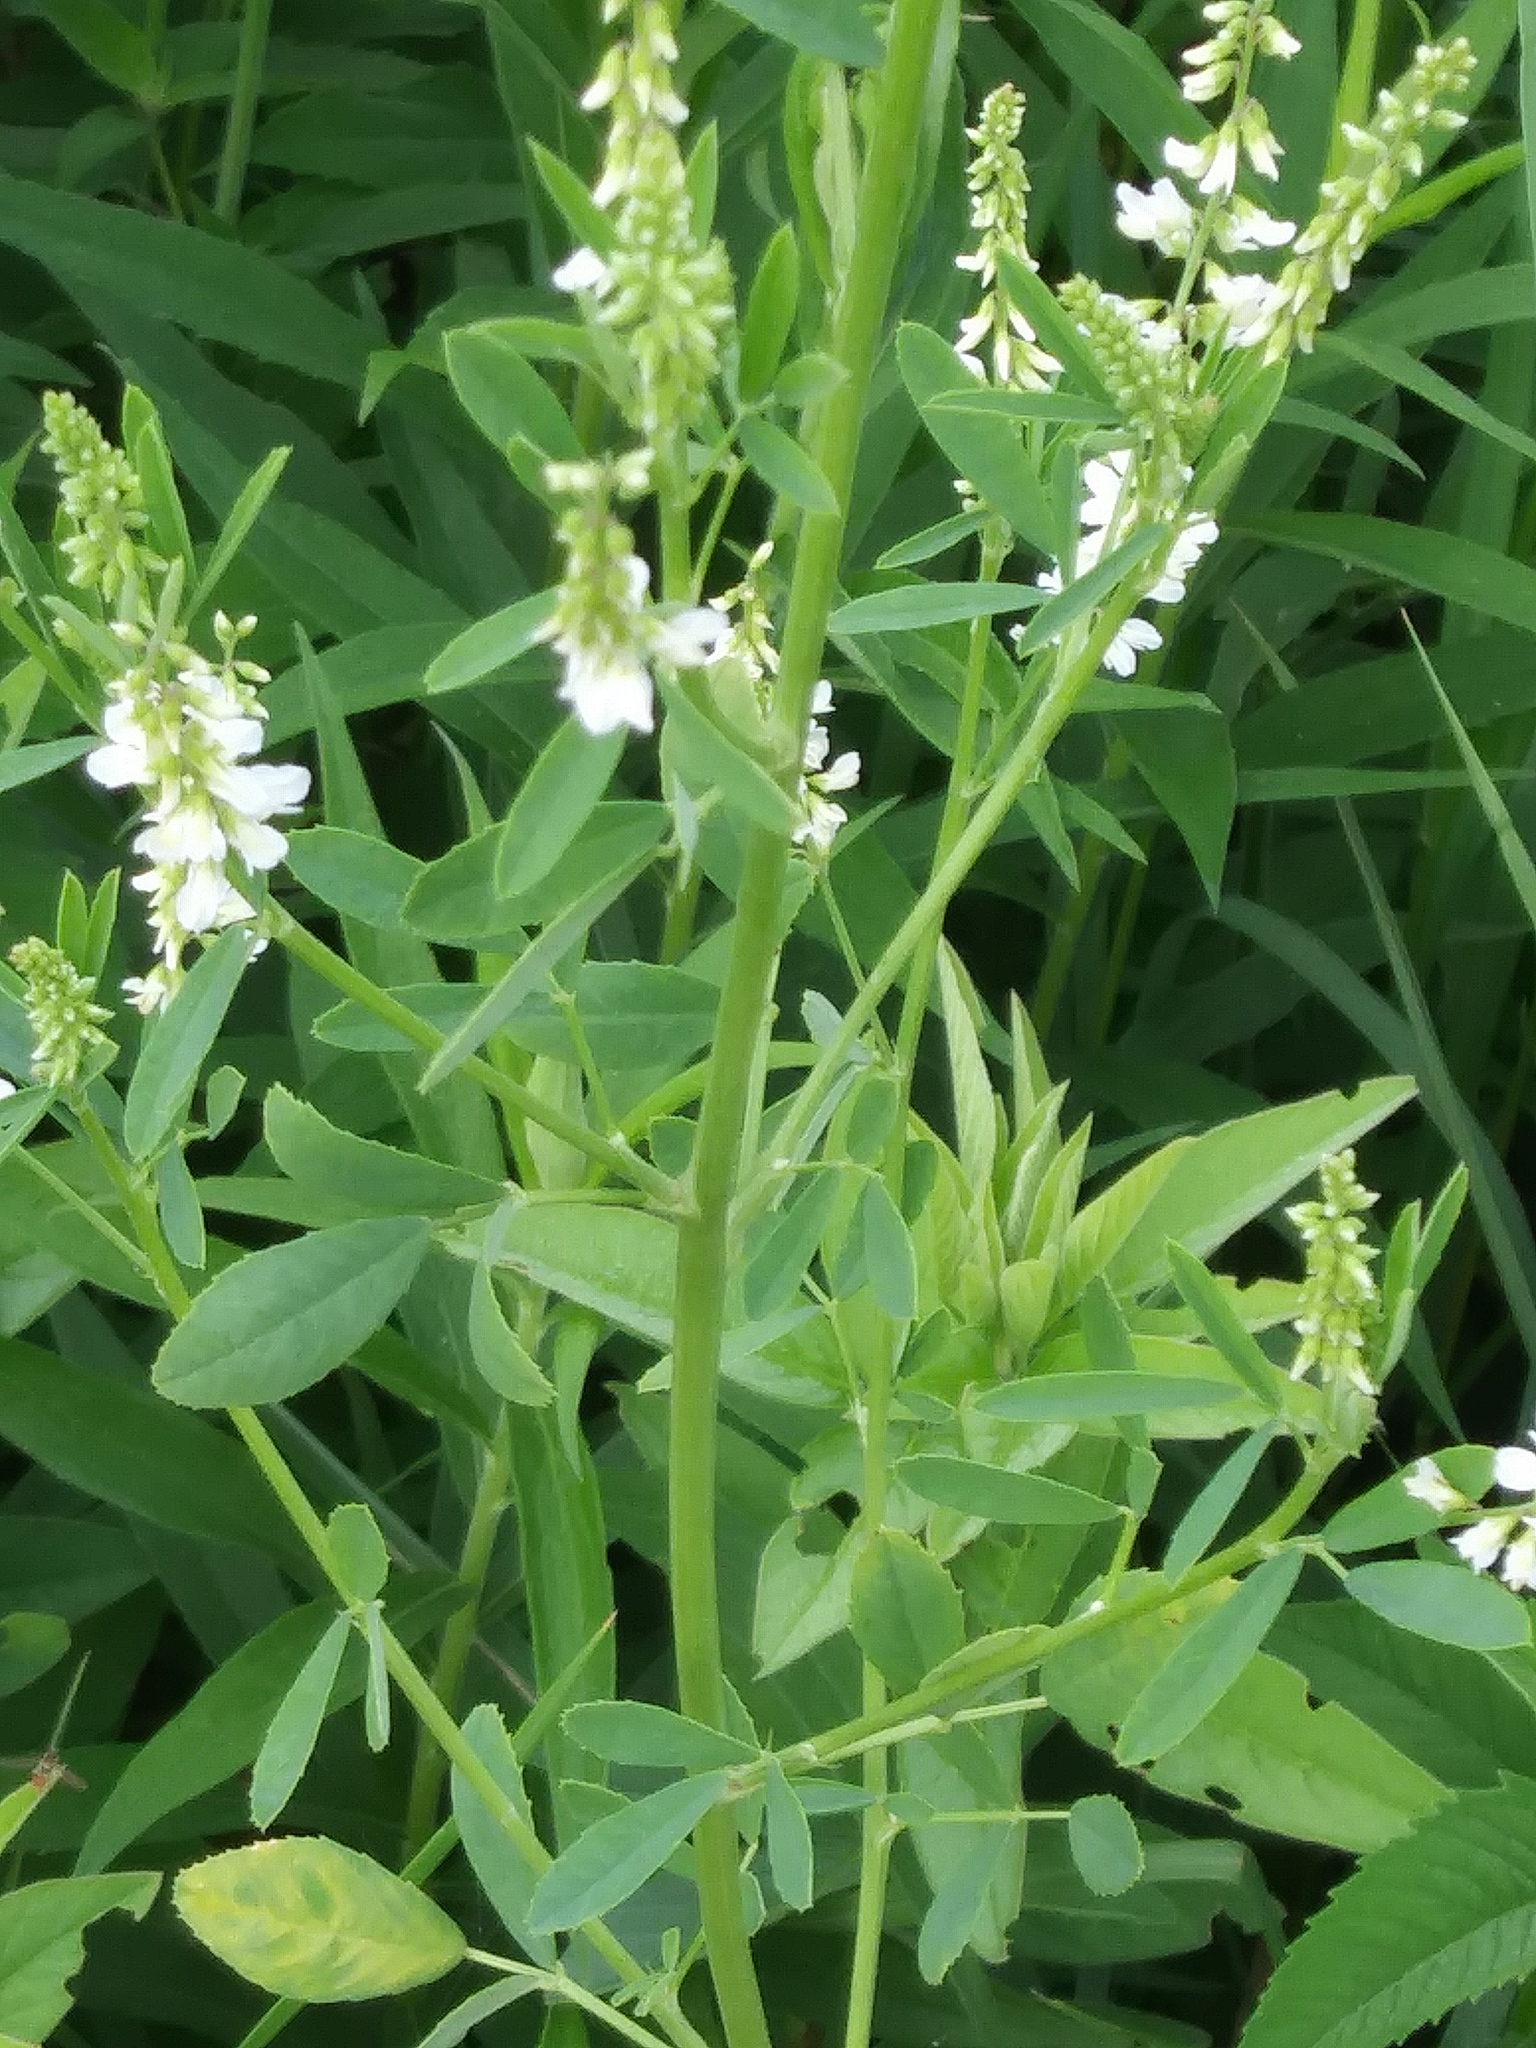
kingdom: Plantae
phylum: Tracheophyta
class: Magnoliopsida
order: Fabales
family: Fabaceae
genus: Melilotus
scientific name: Melilotus albus
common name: White melilot
